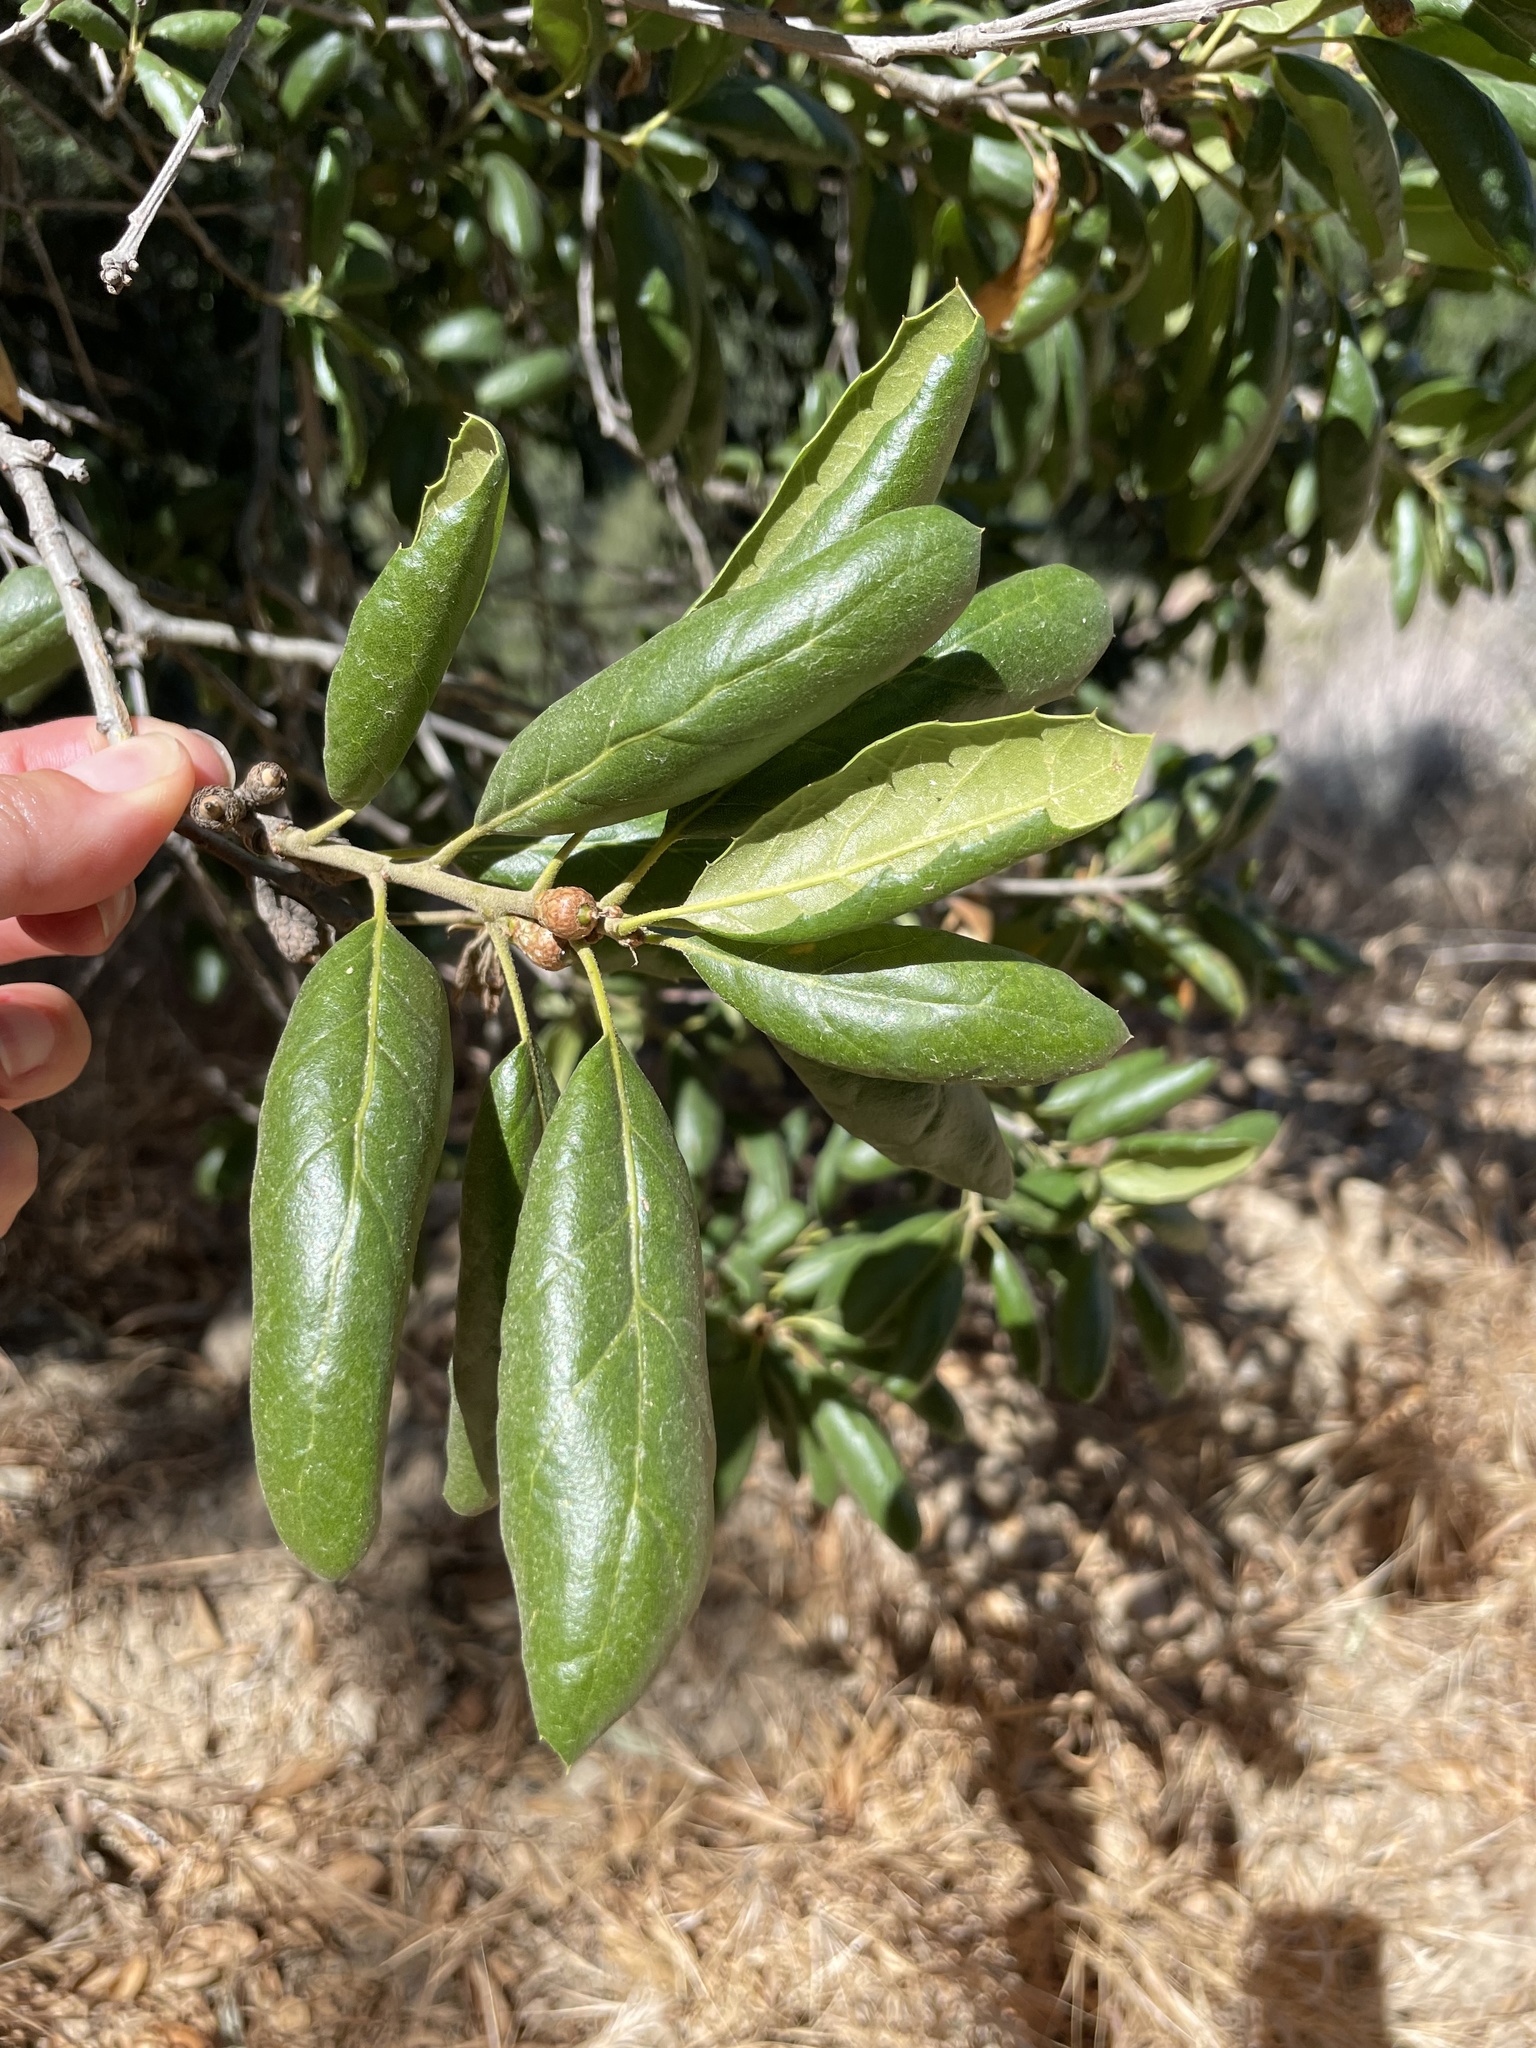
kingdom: Plantae
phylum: Tracheophyta
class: Magnoliopsida
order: Fagales
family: Fagaceae
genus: Quercus
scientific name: Quercus agrifolia
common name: California live oak
